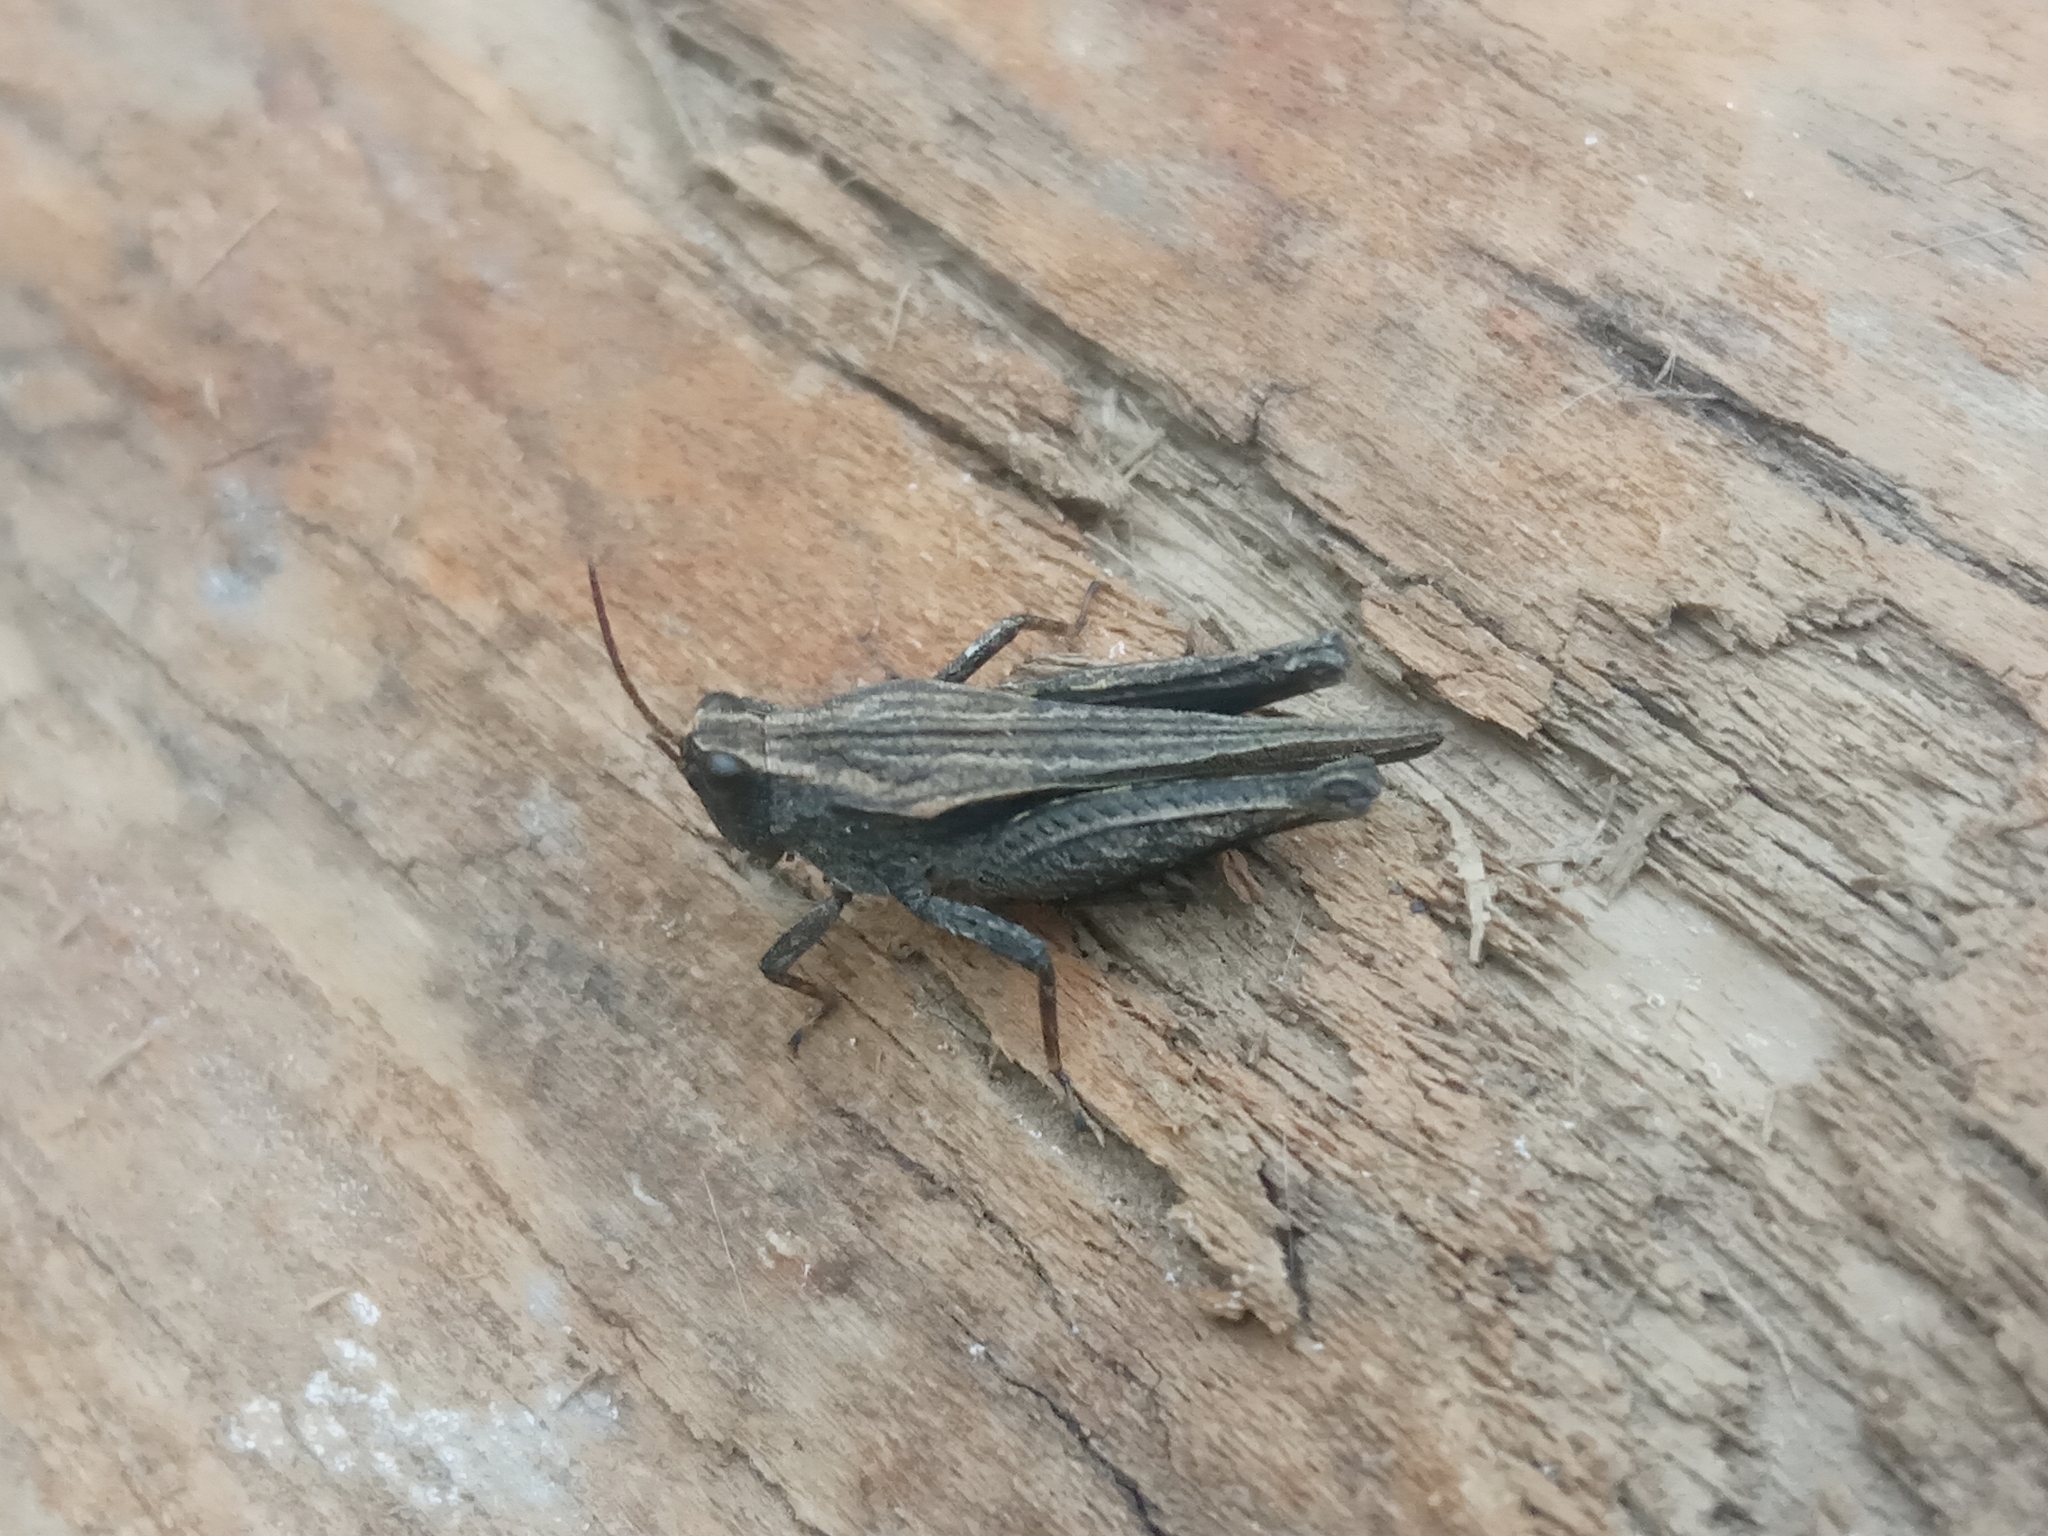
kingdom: Animalia
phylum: Arthropoda
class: Insecta
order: Orthoptera
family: Tetrigidae
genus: Tetrix
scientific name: Tetrix subulata
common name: Slender ground-hopper
